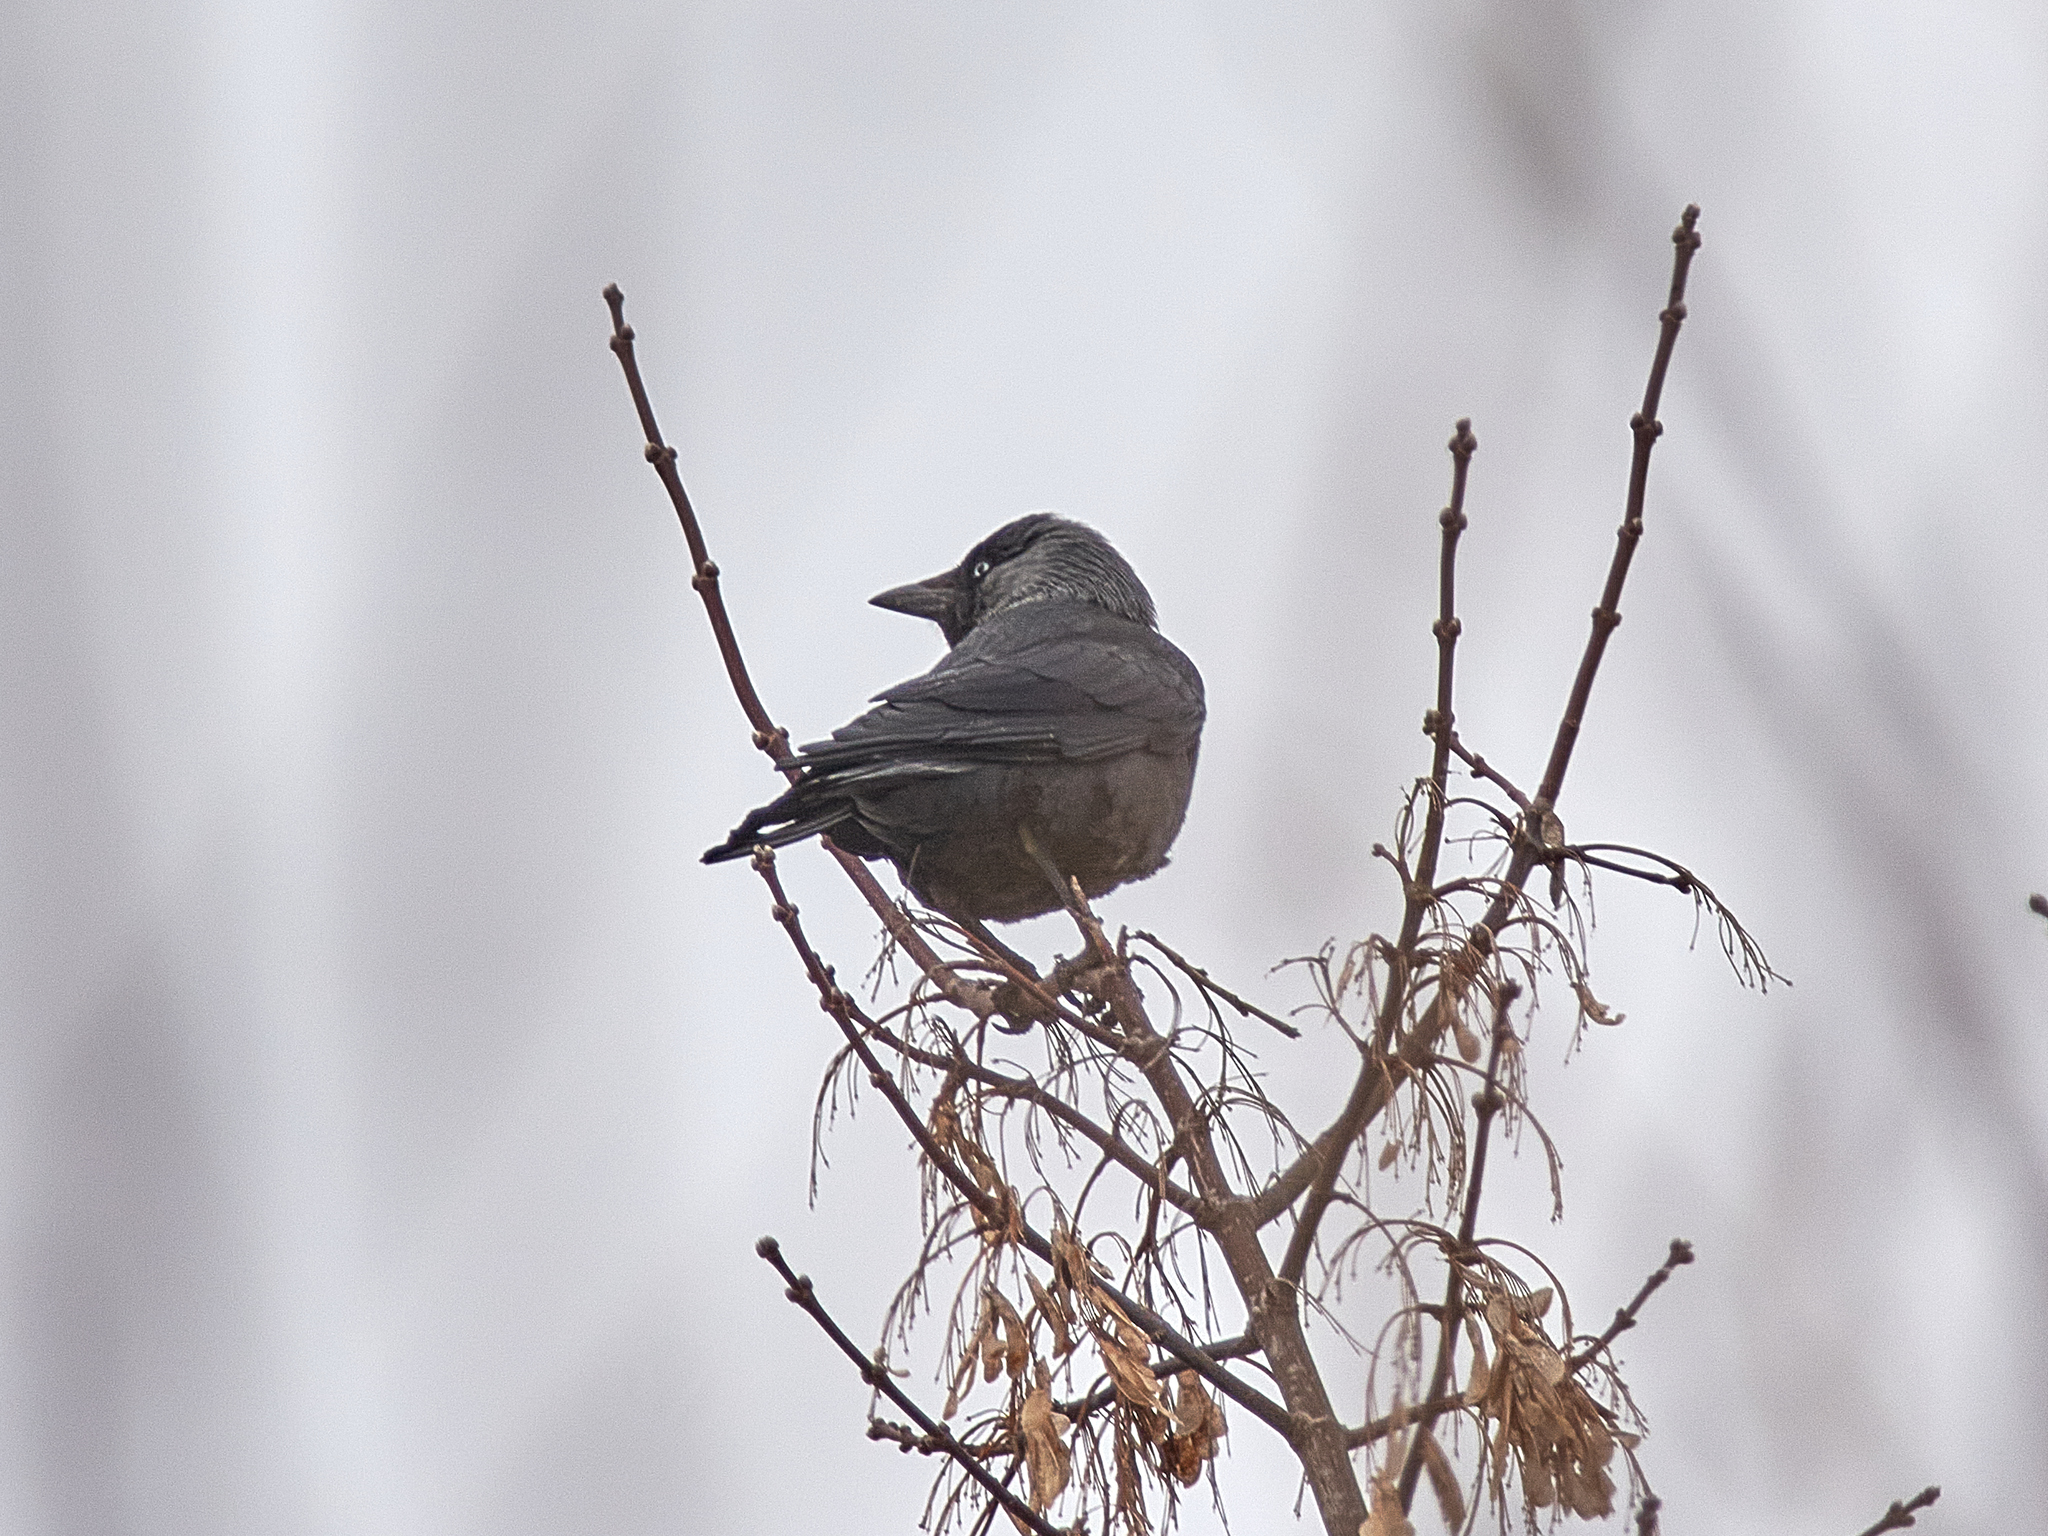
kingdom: Animalia
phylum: Chordata
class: Aves
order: Passeriformes
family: Corvidae
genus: Coloeus
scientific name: Coloeus monedula
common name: Western jackdaw
